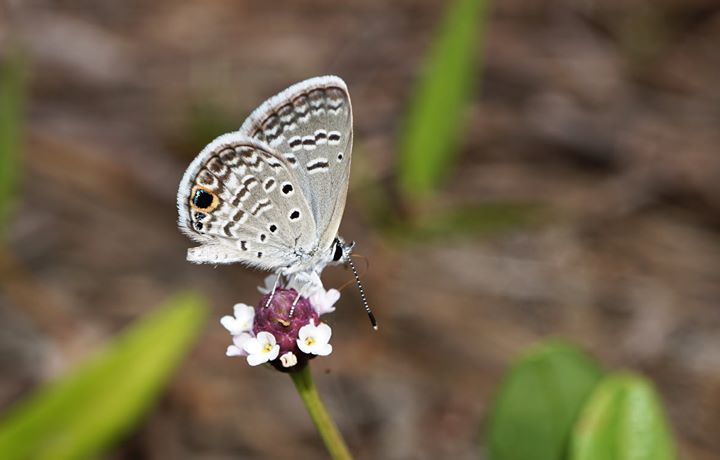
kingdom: Animalia
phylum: Arthropoda
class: Insecta
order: Lepidoptera
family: Lycaenidae
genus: Hemiargus
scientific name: Hemiargus ceraunus
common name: Ceraunus blue
